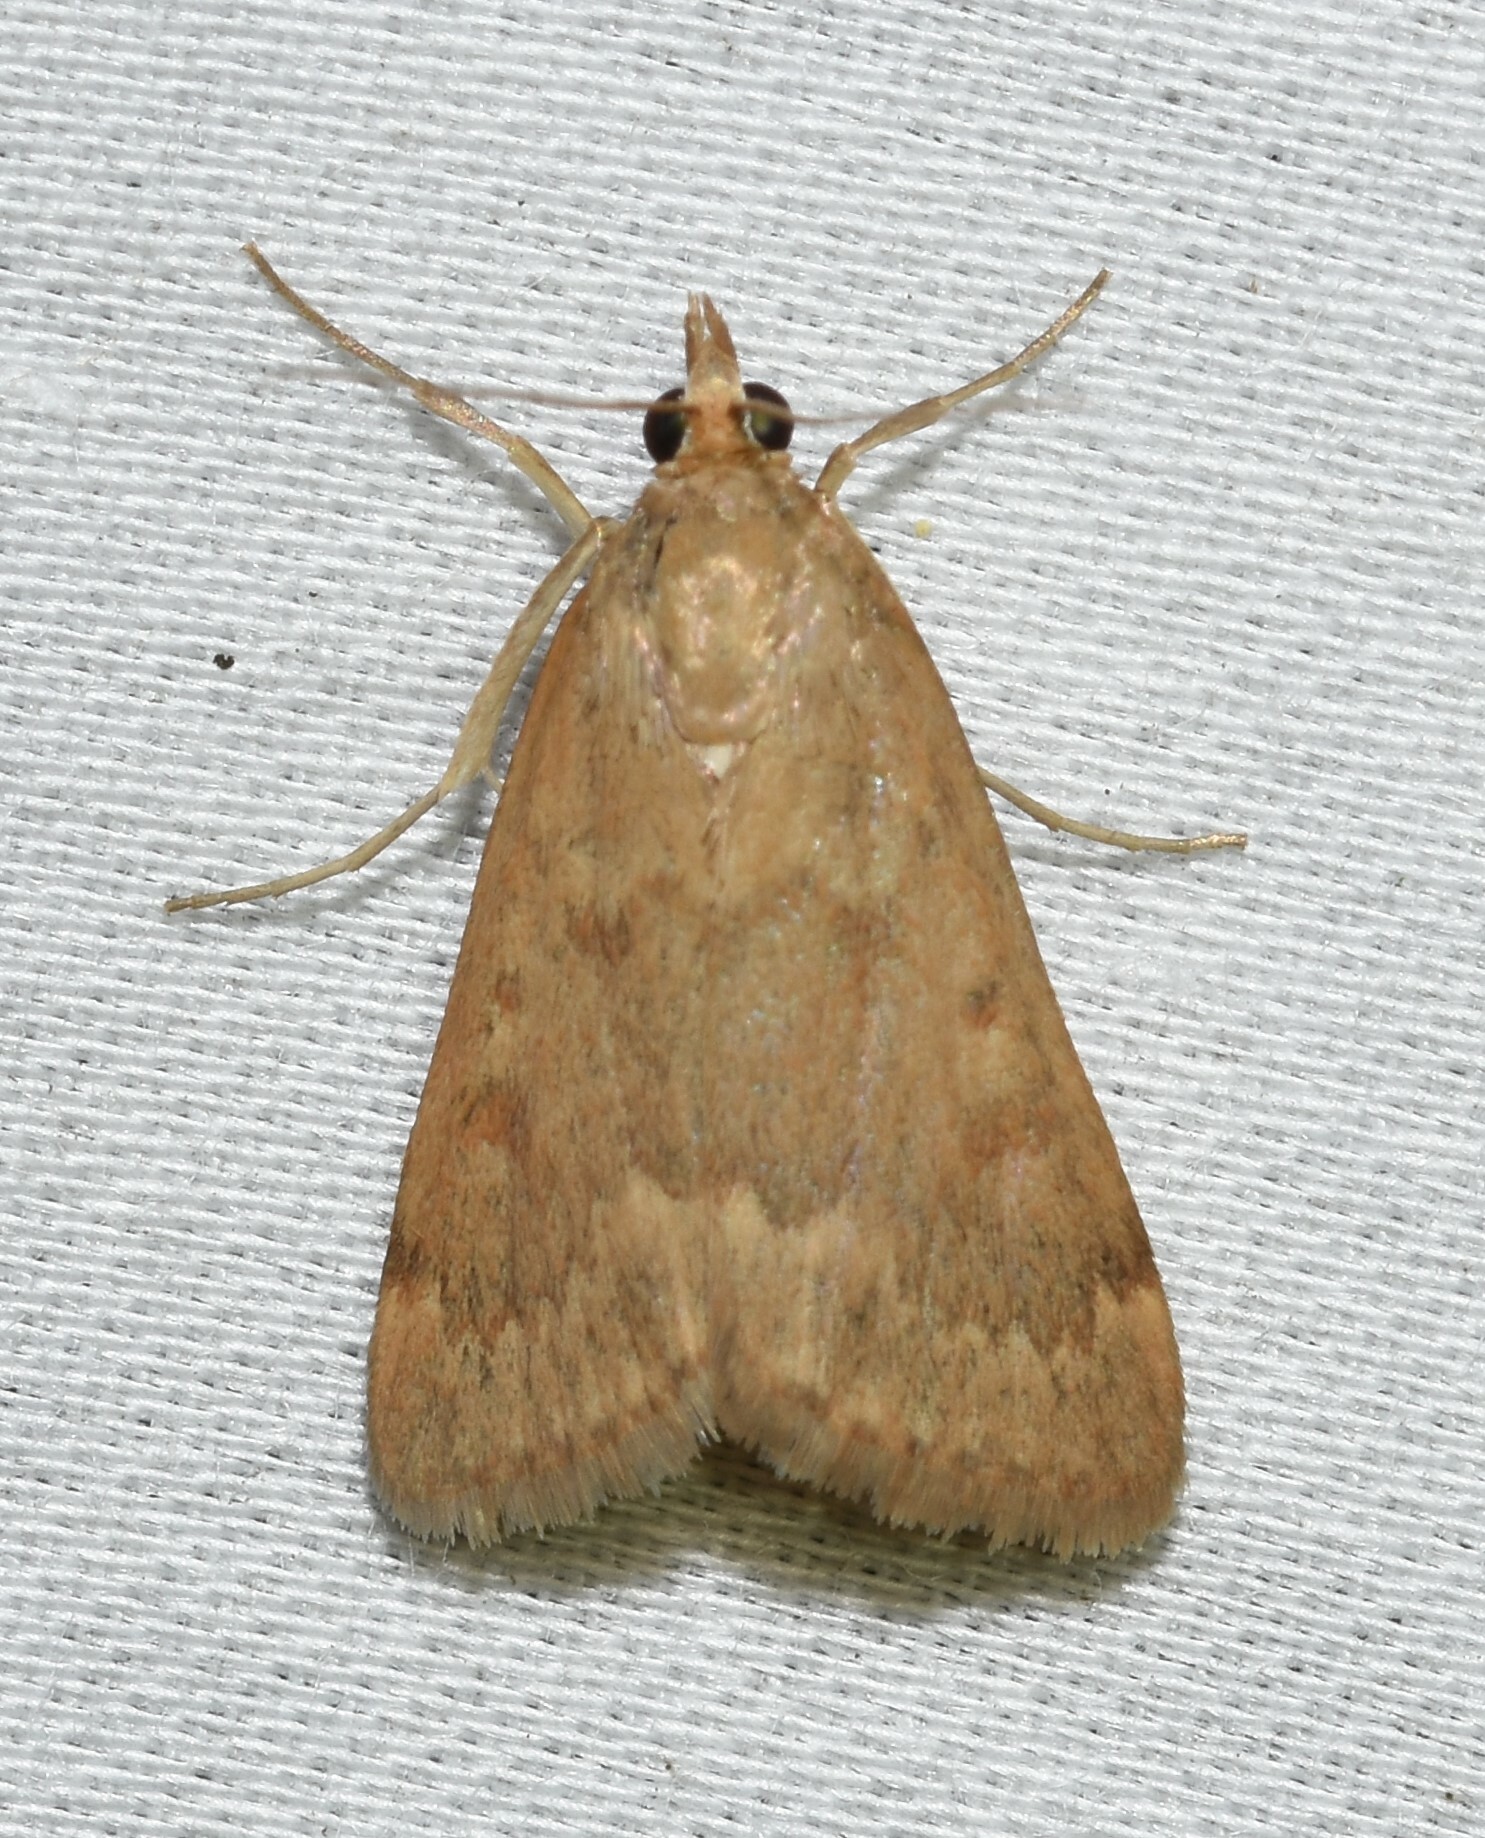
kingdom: Animalia
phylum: Arthropoda
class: Insecta
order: Lepidoptera
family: Crambidae
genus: Achyra
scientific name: Achyra rantalis
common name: Garden webworm
